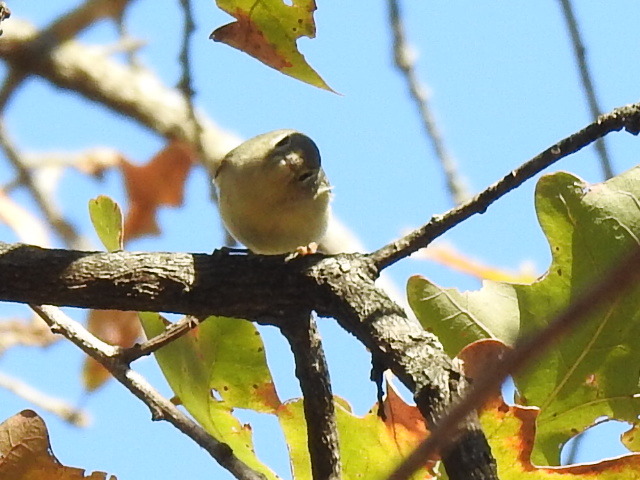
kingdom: Animalia
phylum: Chordata
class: Aves
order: Passeriformes
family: Regulidae
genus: Regulus
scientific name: Regulus calendula
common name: Ruby-crowned kinglet
